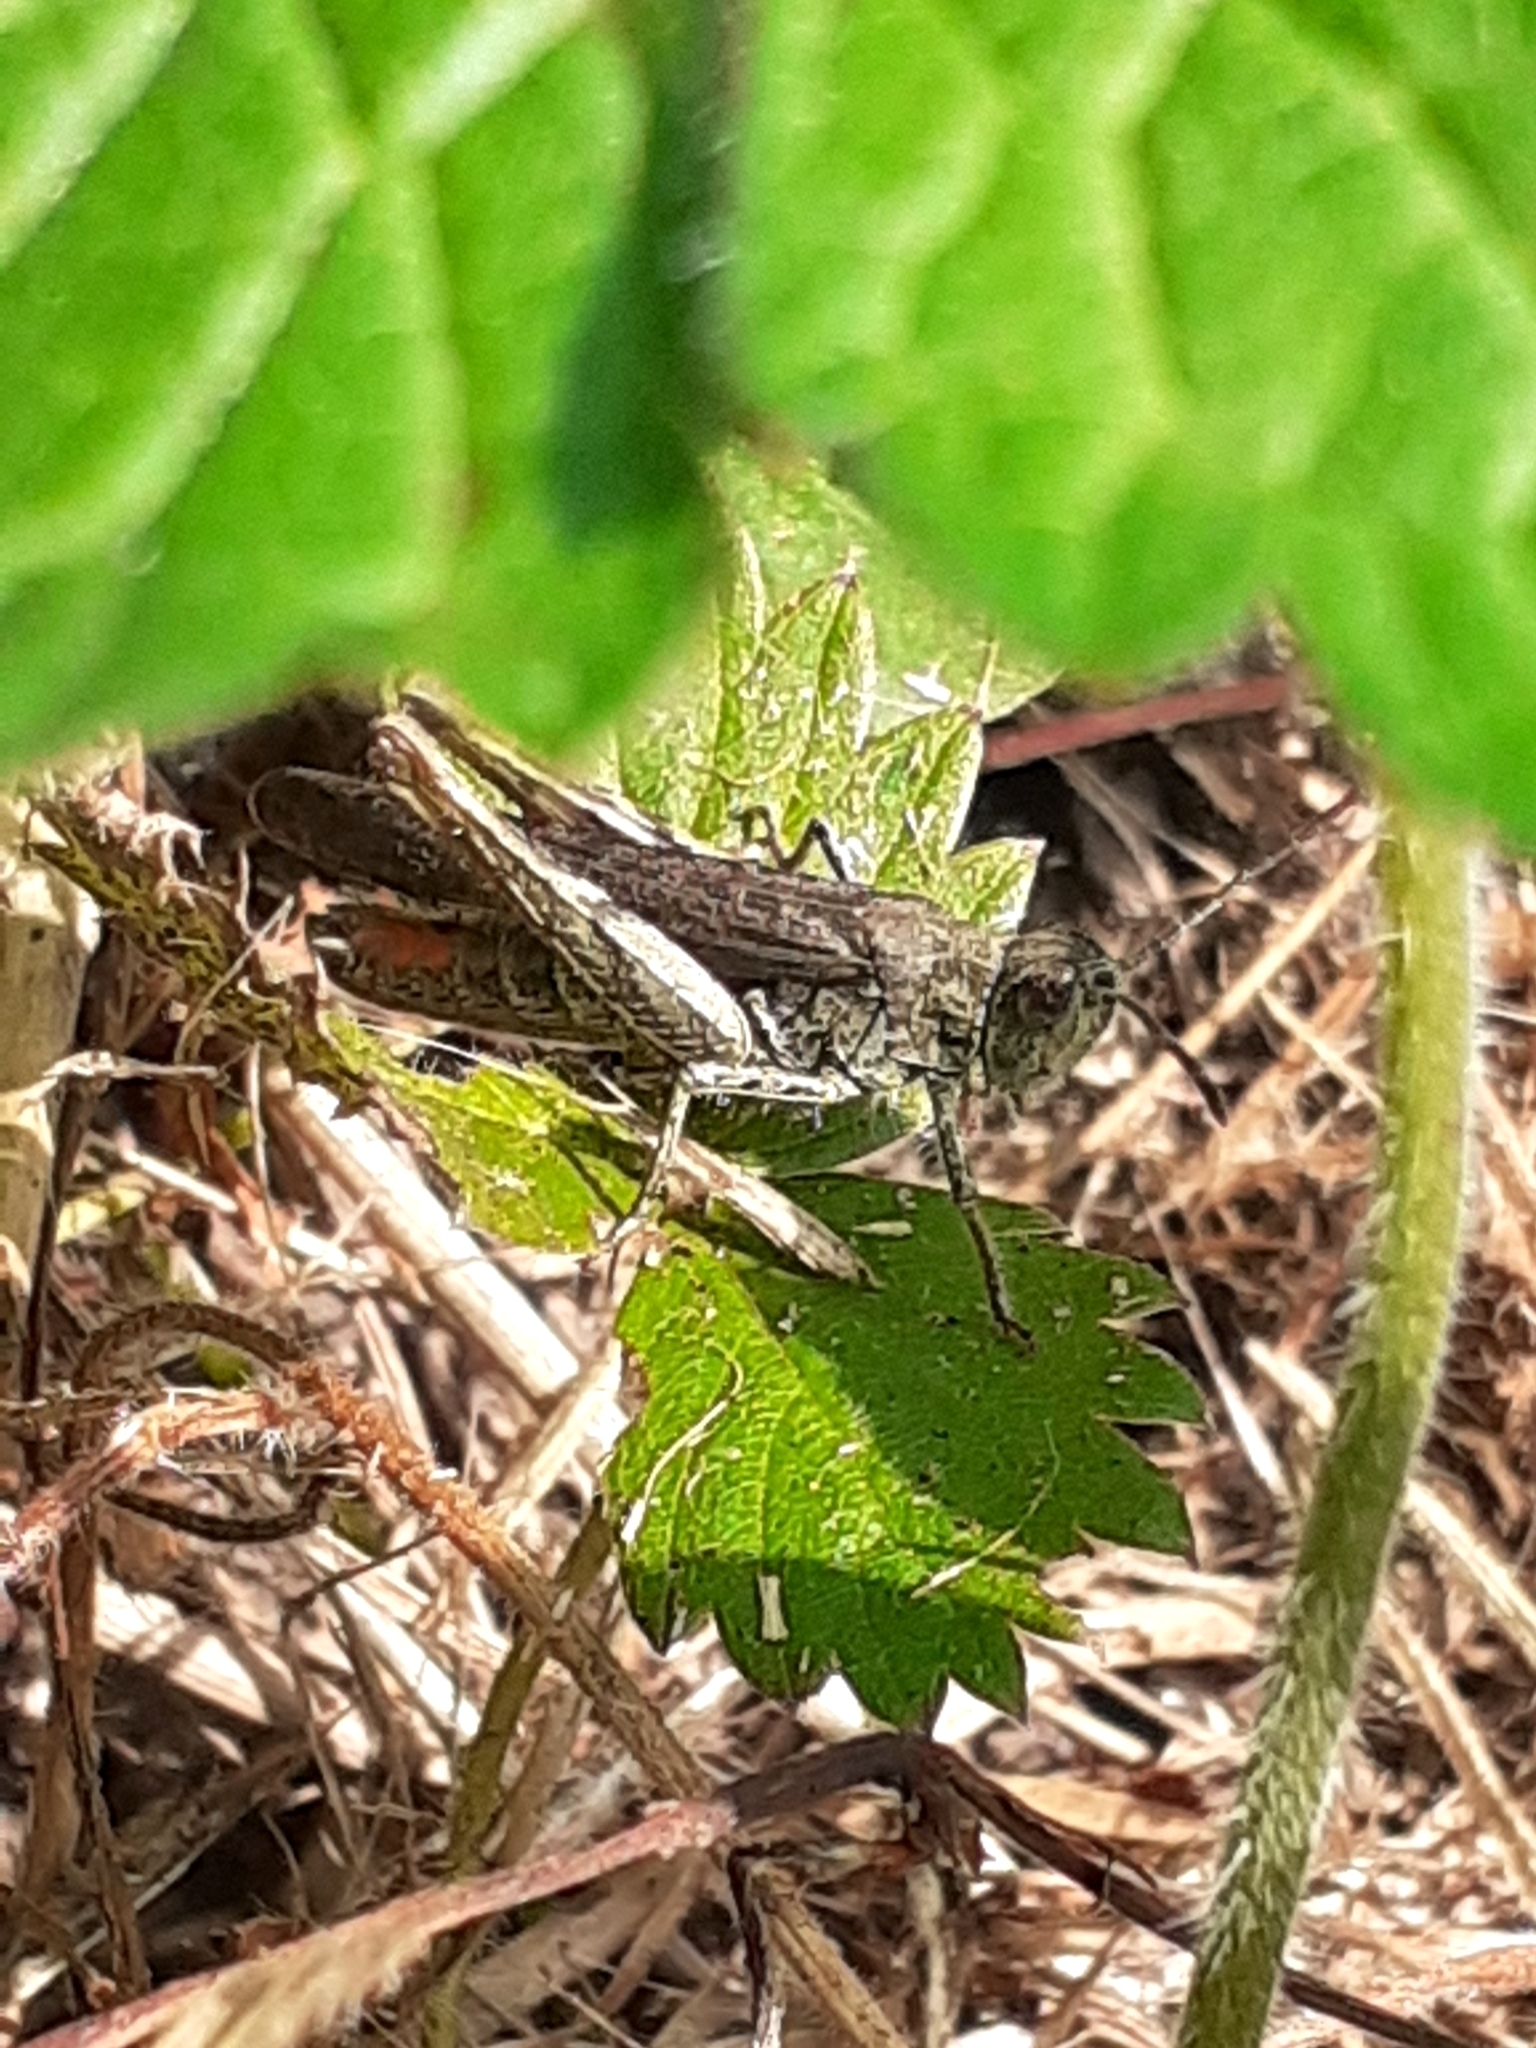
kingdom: Animalia
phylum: Arthropoda
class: Insecta
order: Orthoptera
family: Acrididae
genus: Chorthippus
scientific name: Chorthippus brunneus
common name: Field grasshopper
